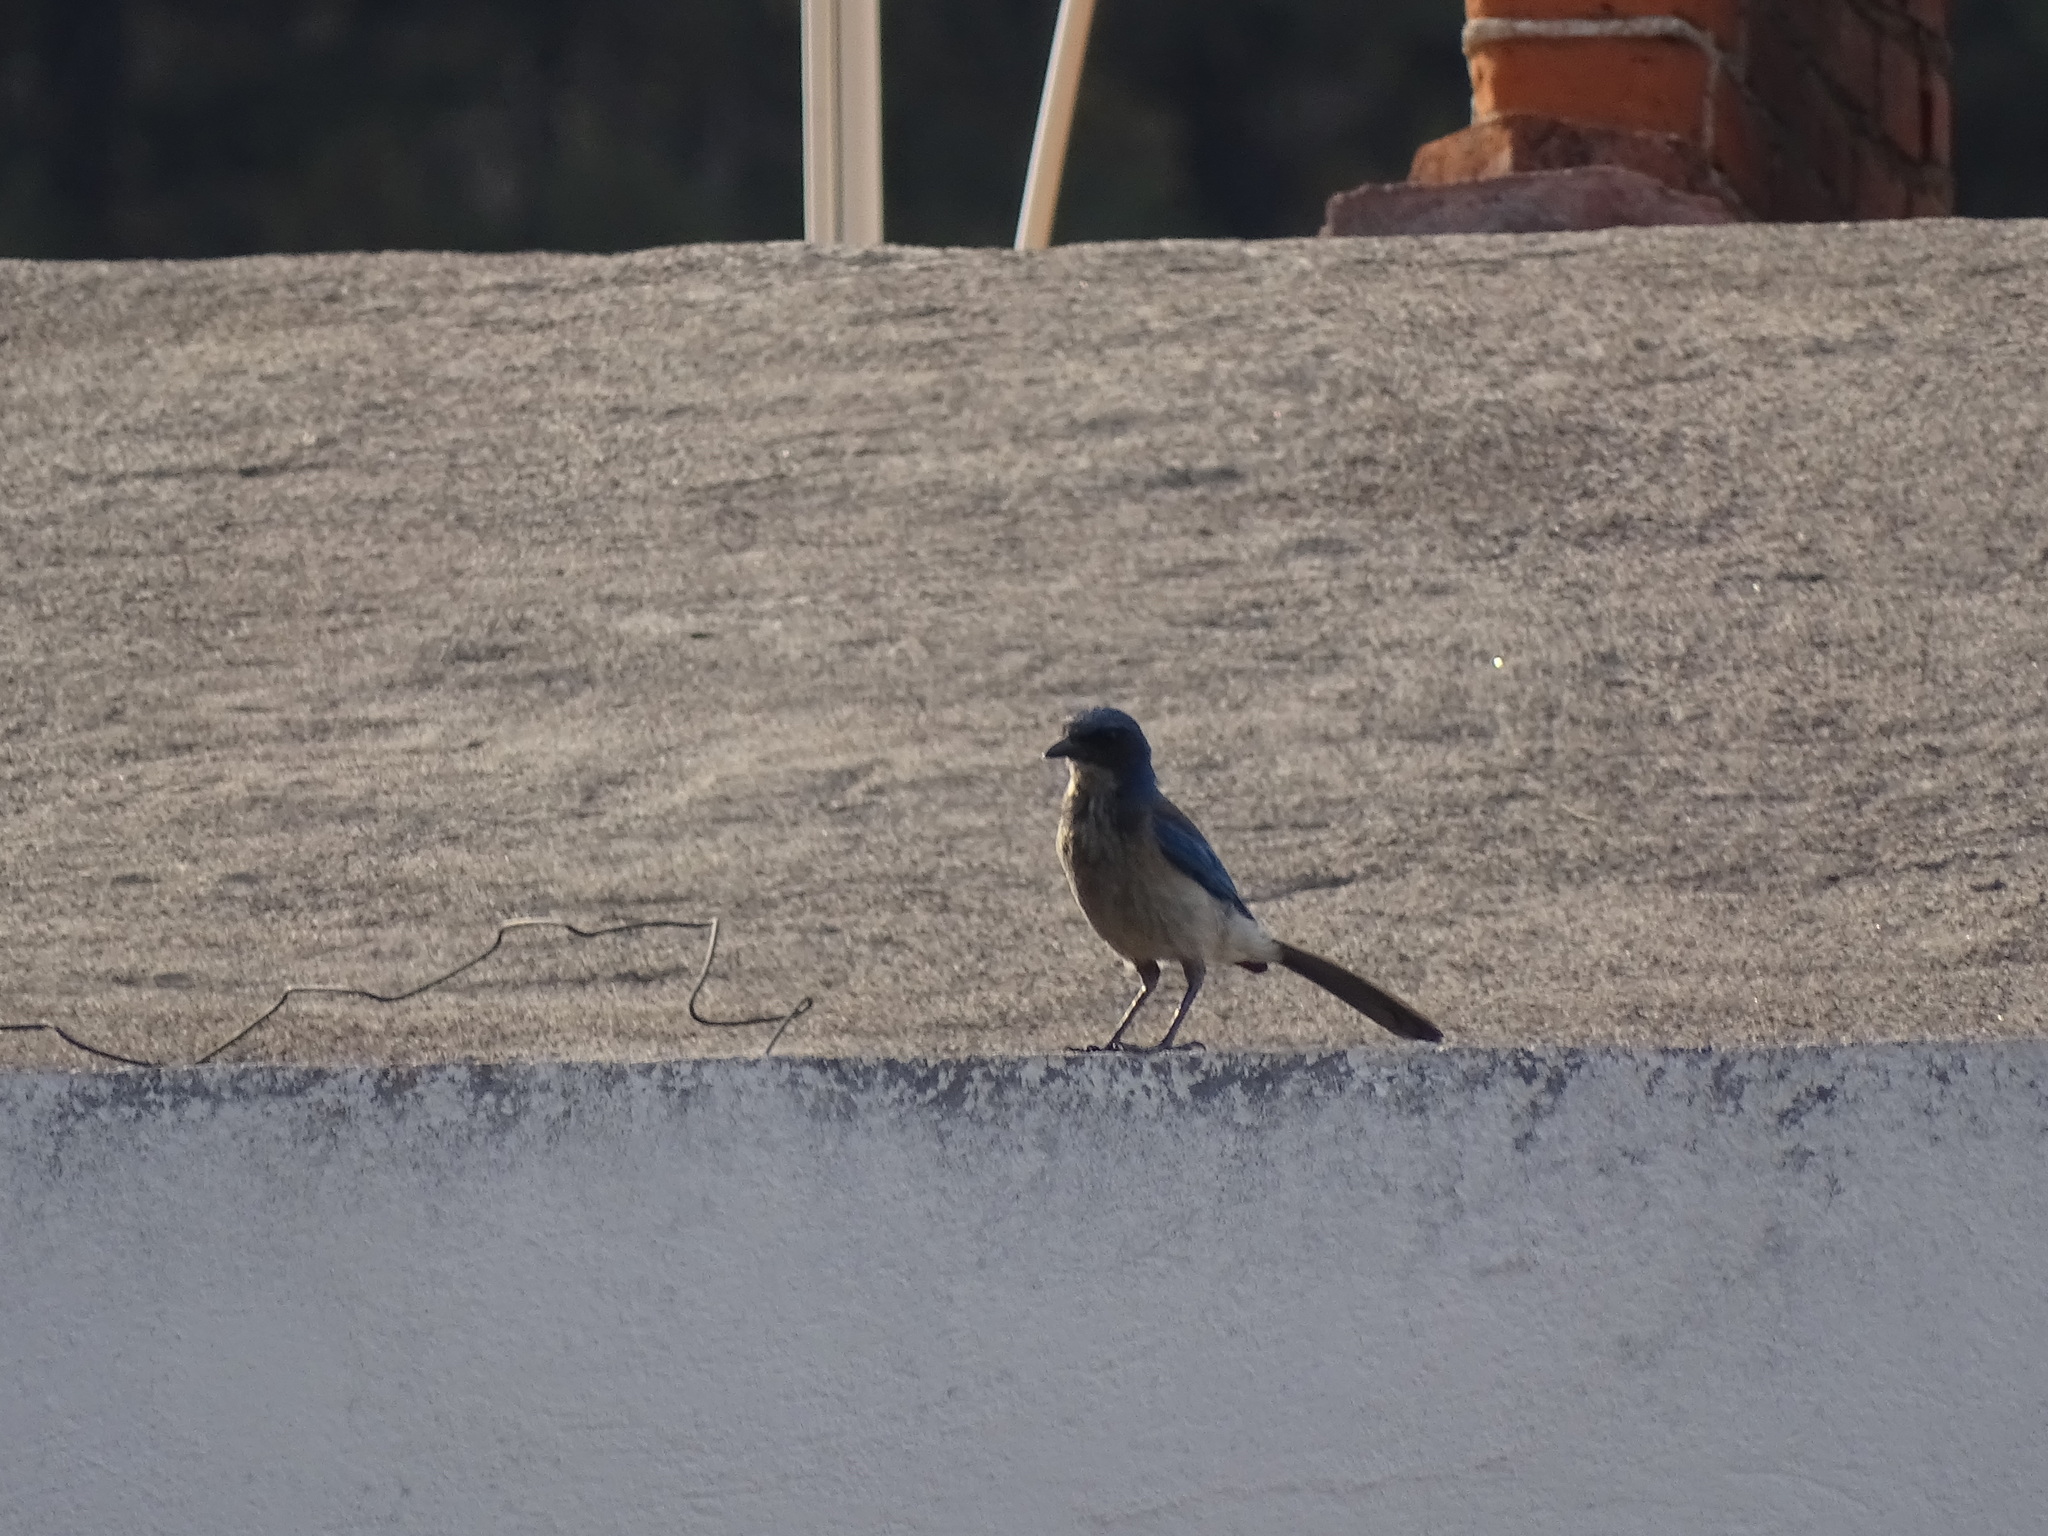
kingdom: Animalia
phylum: Chordata
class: Aves
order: Passeriformes
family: Corvidae
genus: Aphelocoma
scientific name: Aphelocoma woodhouseii
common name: Woodhouse's scrub-jay
